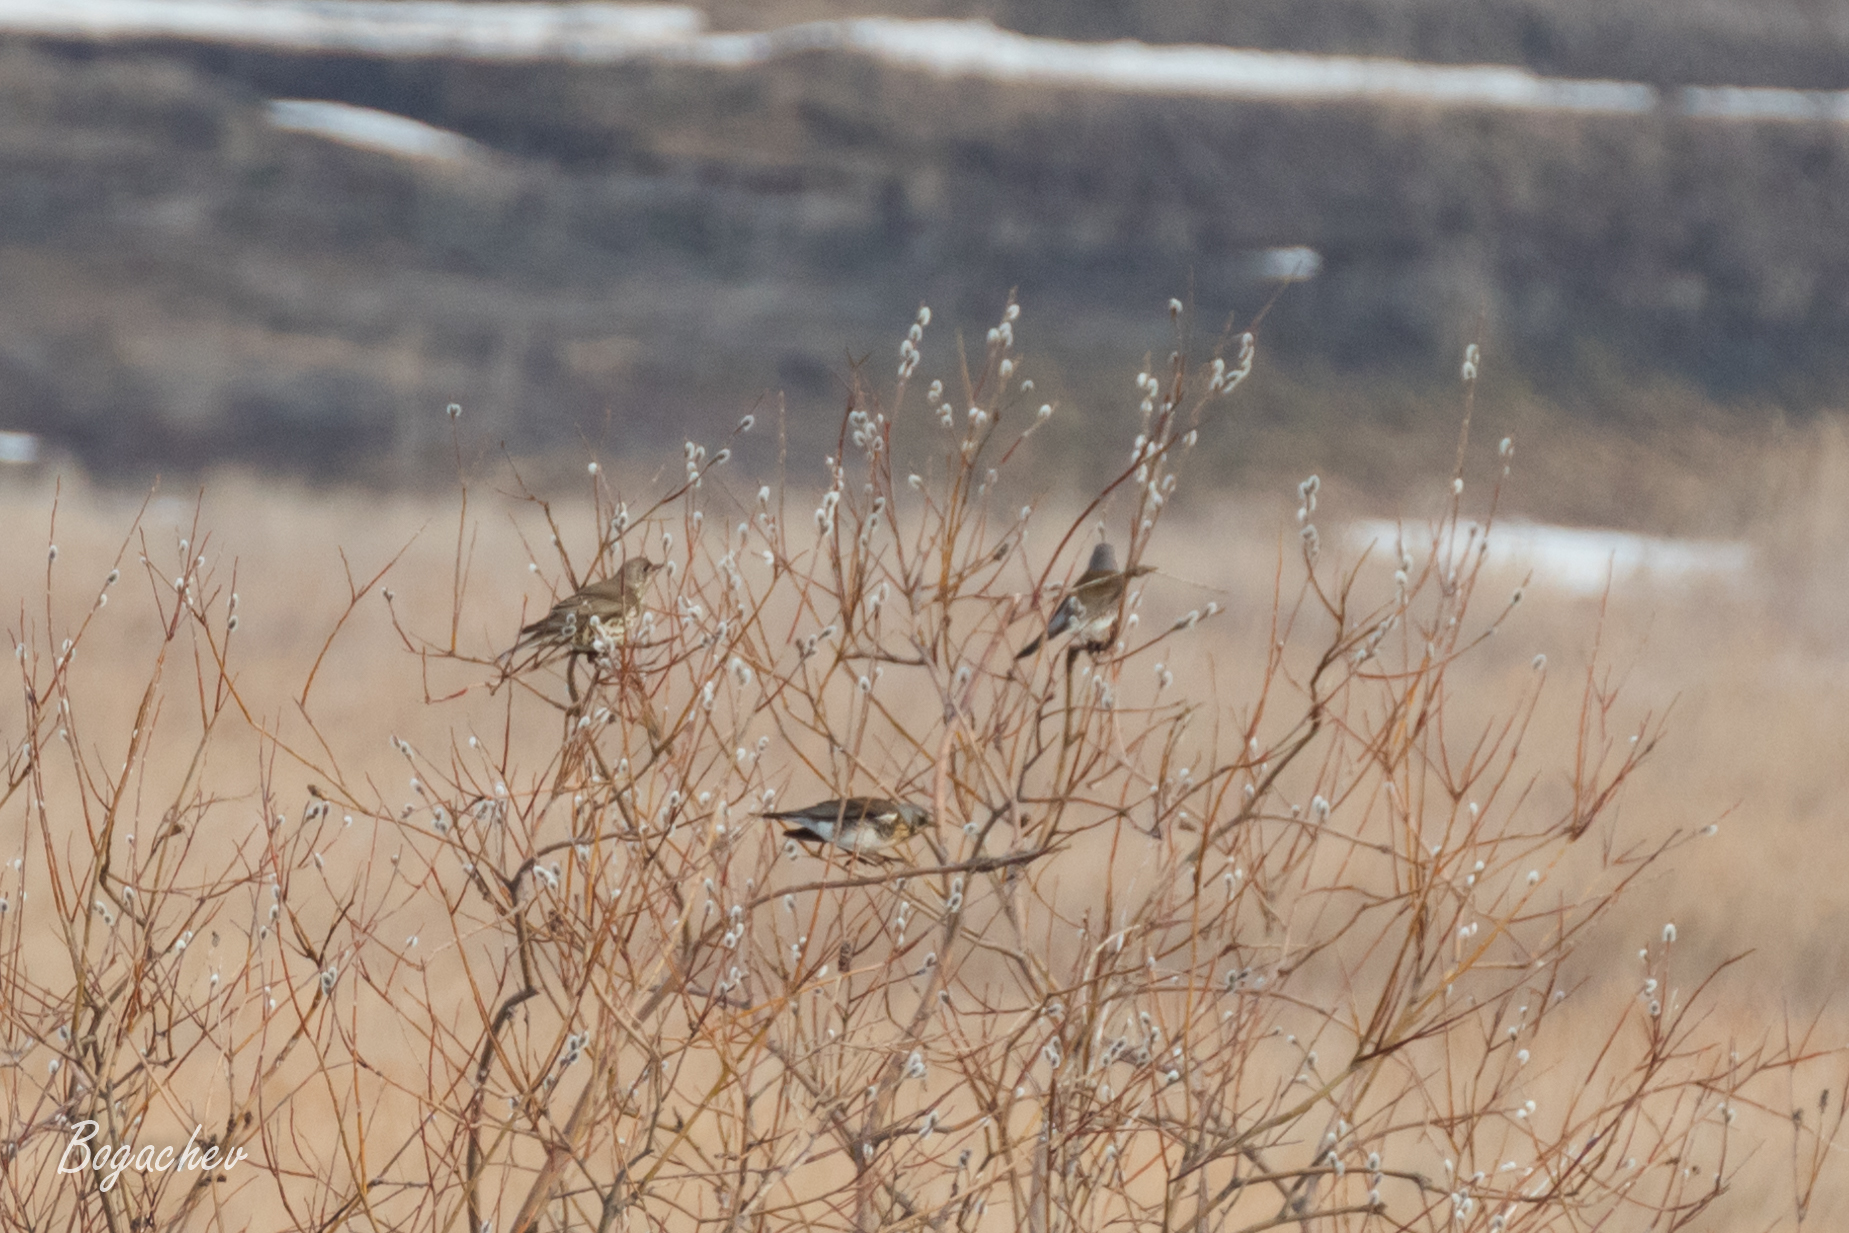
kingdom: Animalia
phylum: Chordata
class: Aves
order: Passeriformes
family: Turdidae
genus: Turdus
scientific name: Turdus pilaris
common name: Fieldfare
